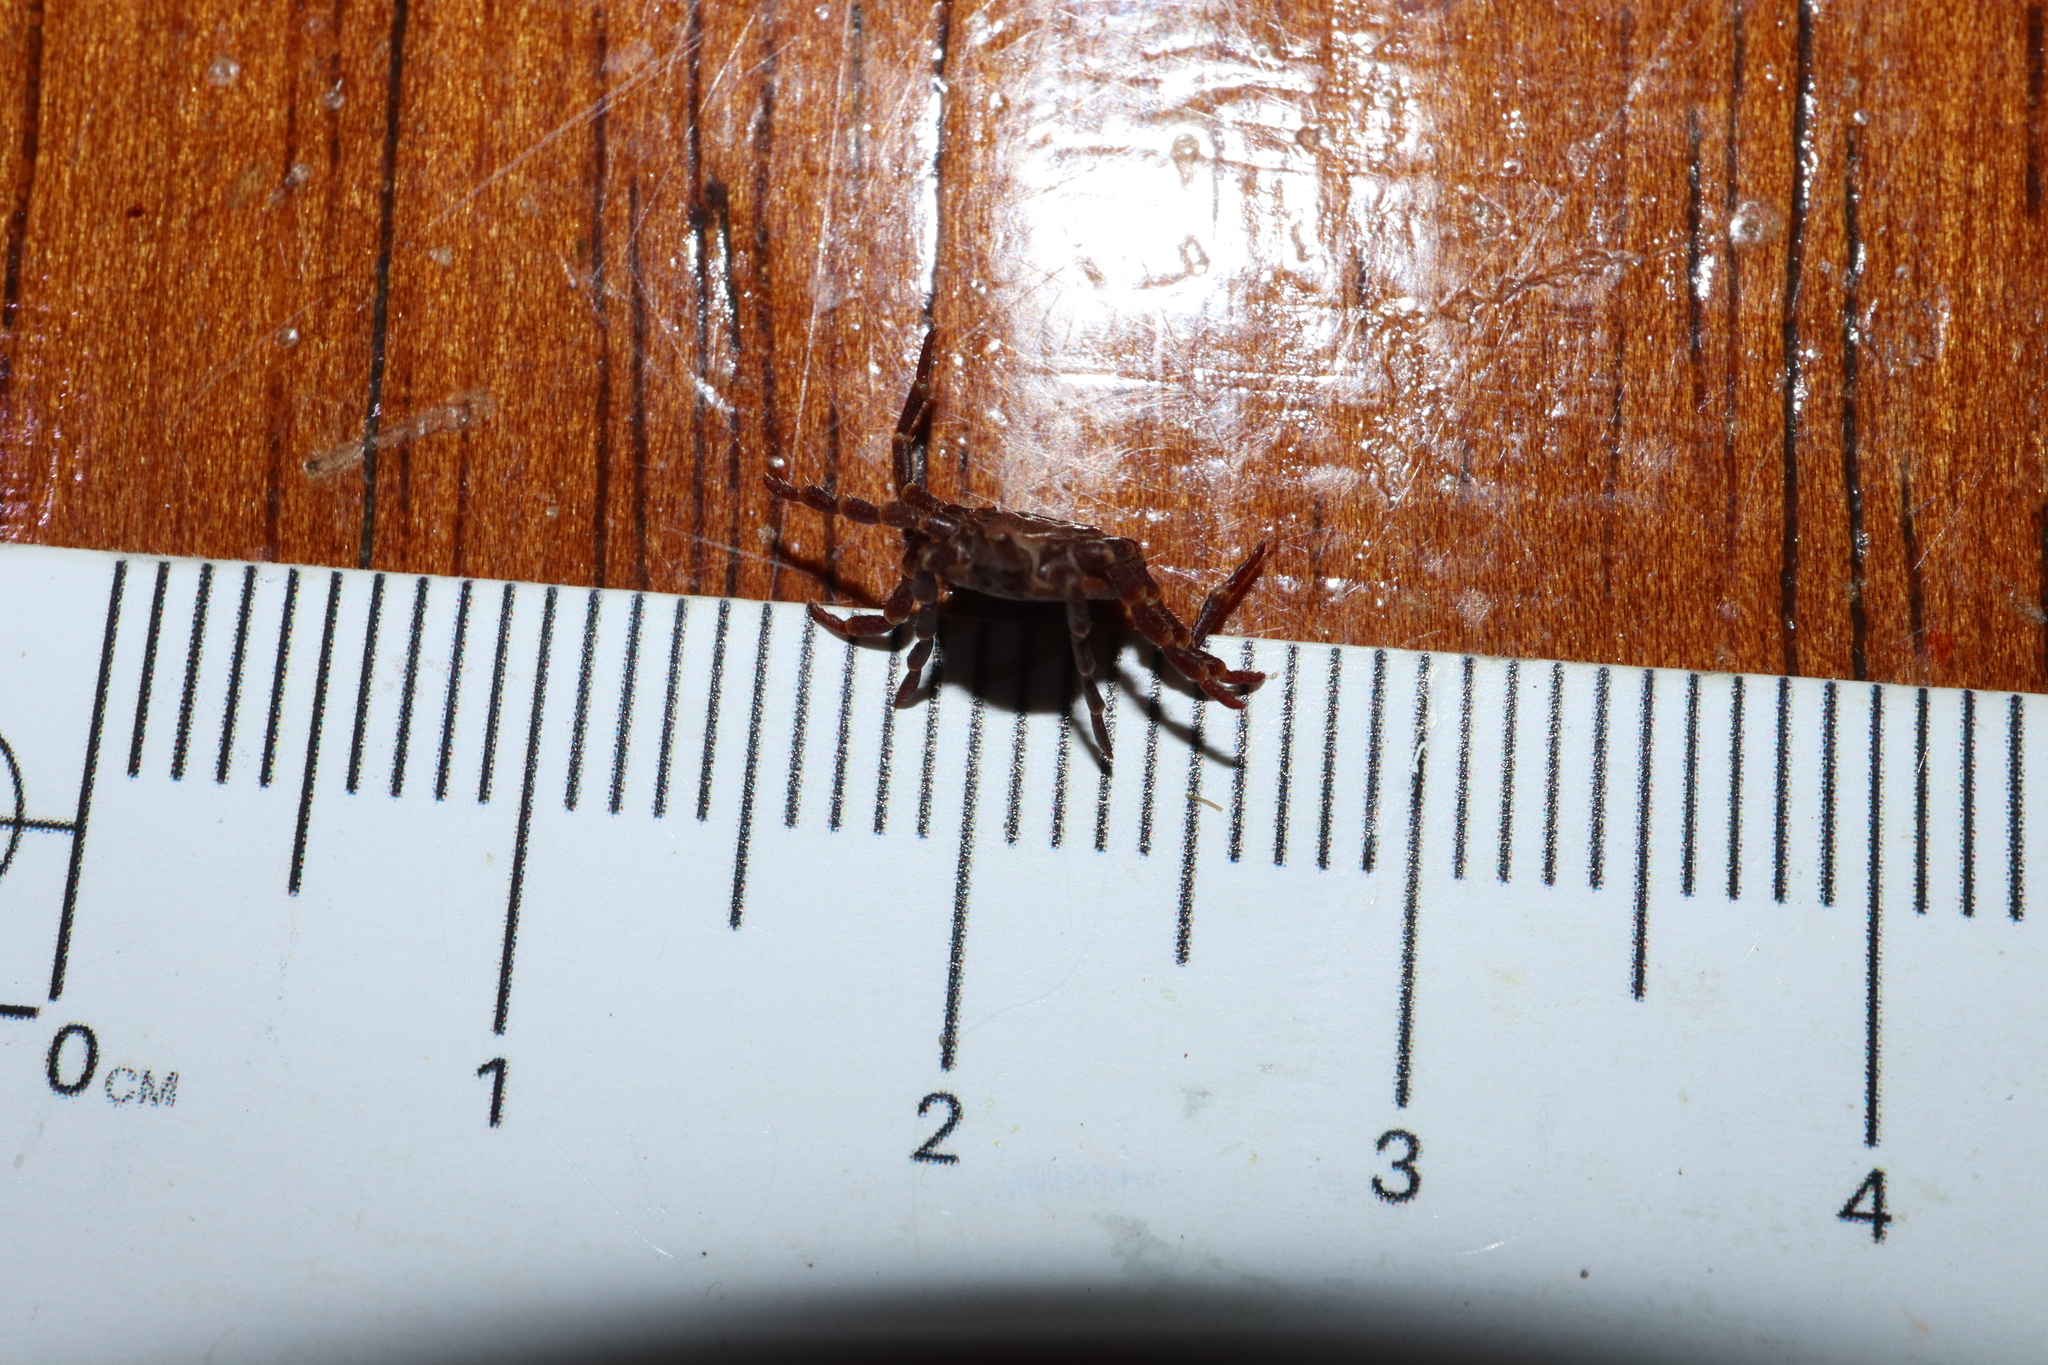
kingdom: Animalia
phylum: Arthropoda
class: Arachnida
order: Ixodida
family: Ixodidae
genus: Amblyomma
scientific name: Amblyomma triguttatum
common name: Kangaroo hard tick
